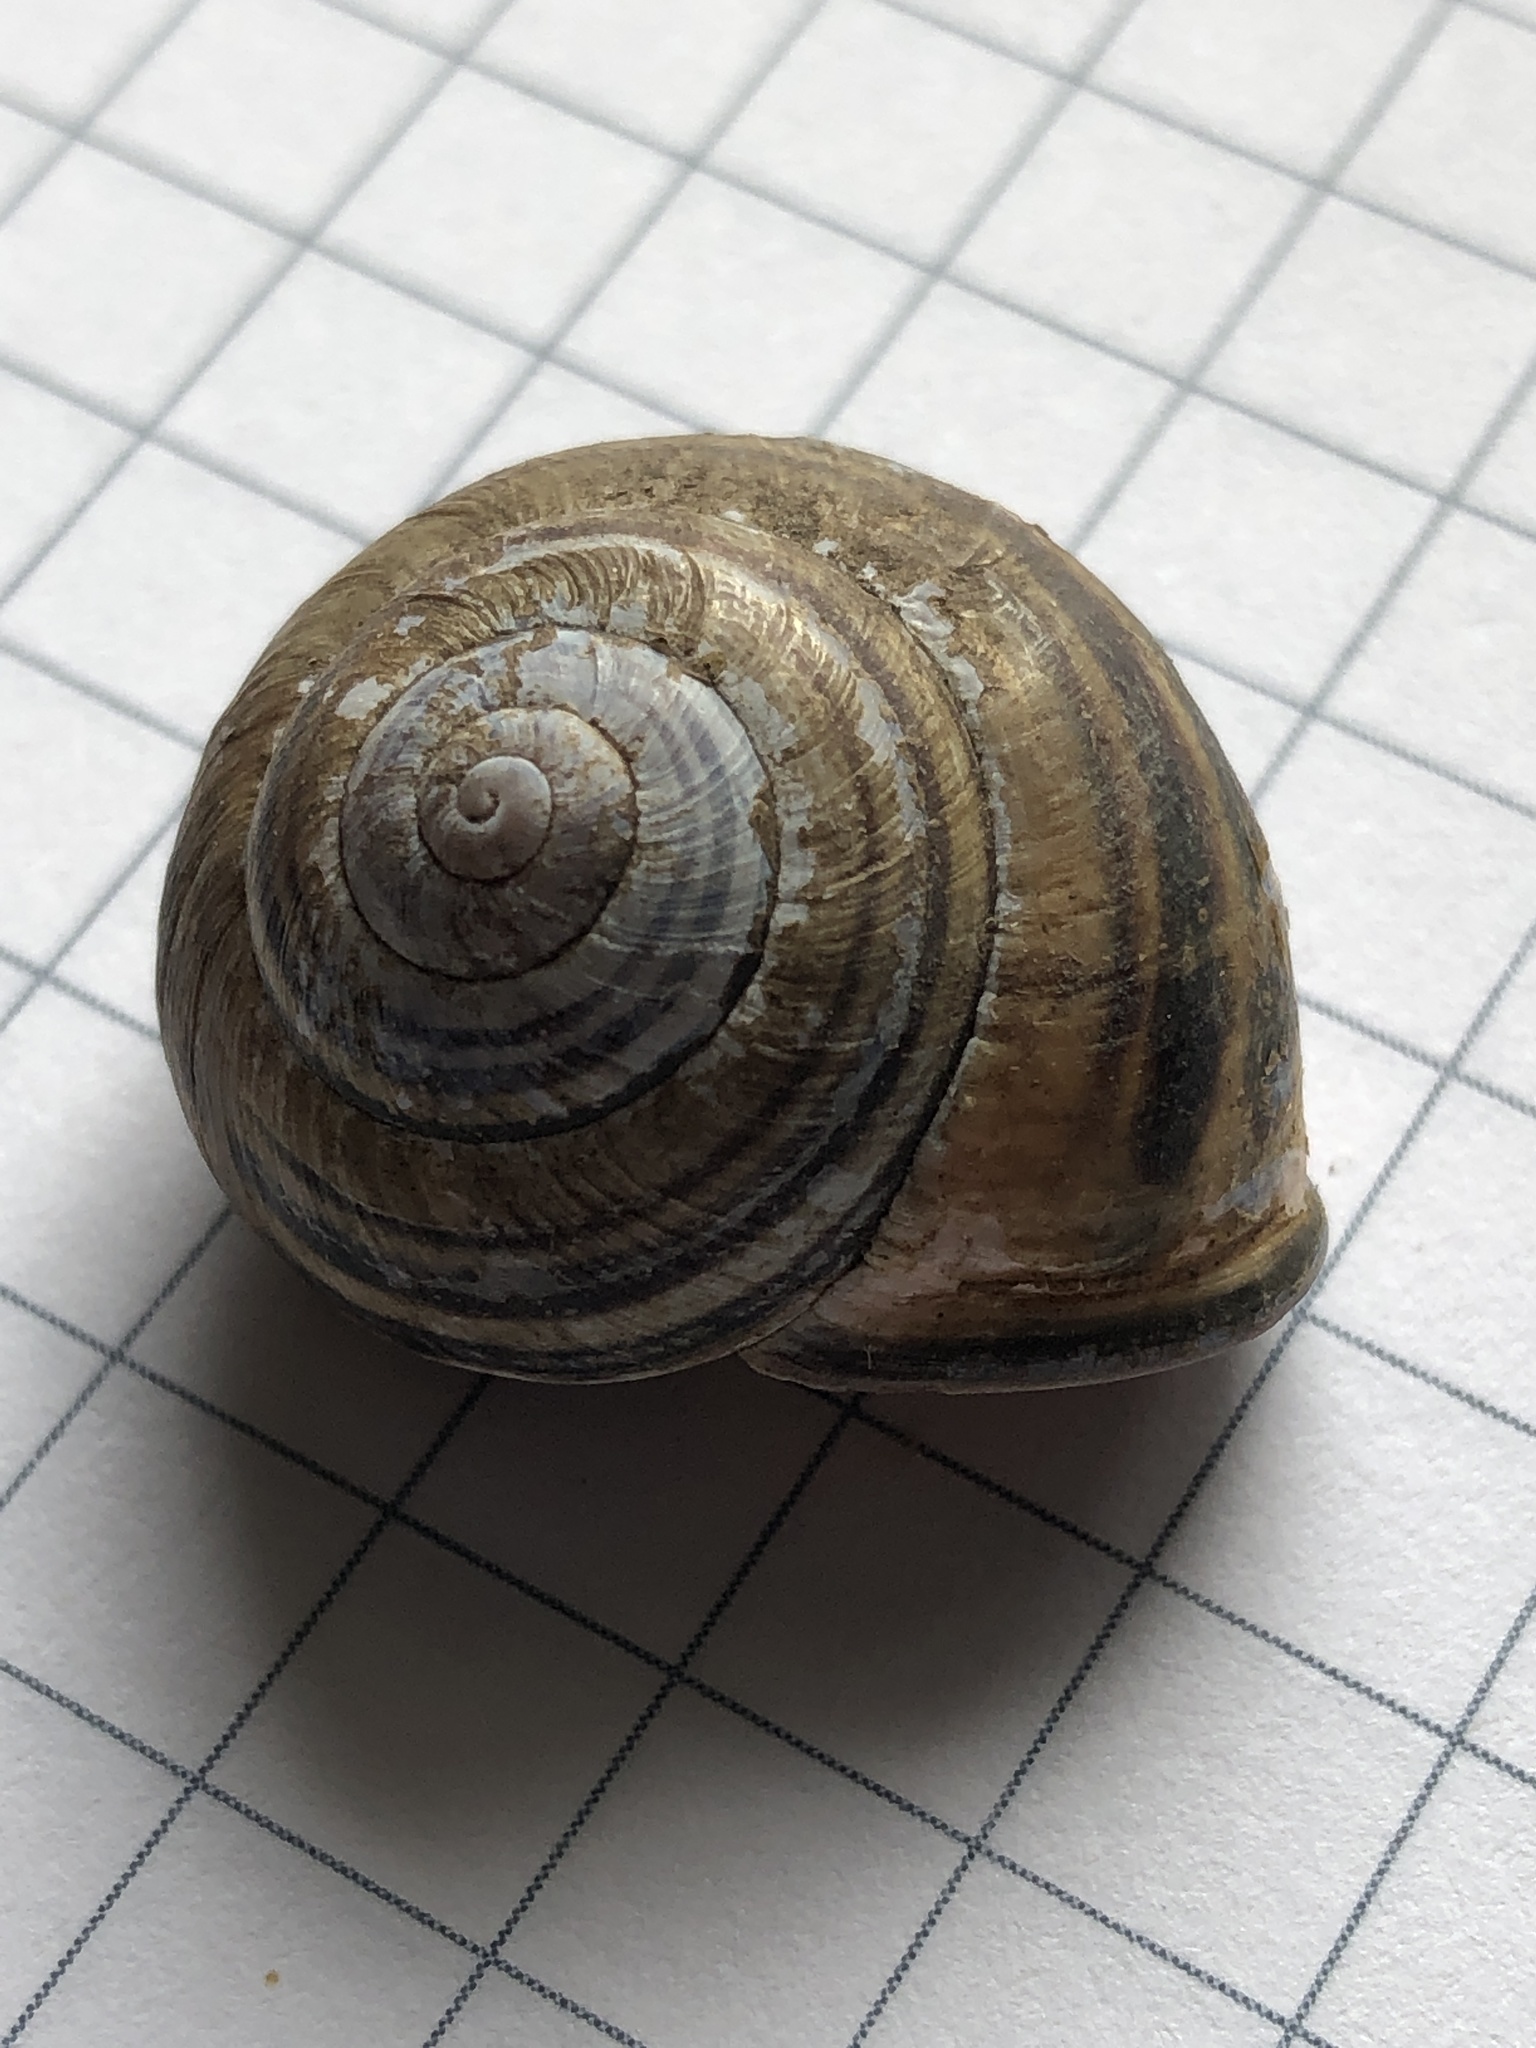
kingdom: Animalia
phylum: Mollusca
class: Gastropoda
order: Stylommatophora
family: Helicidae
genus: Cepaea
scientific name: Cepaea nemoralis
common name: Grovesnail
